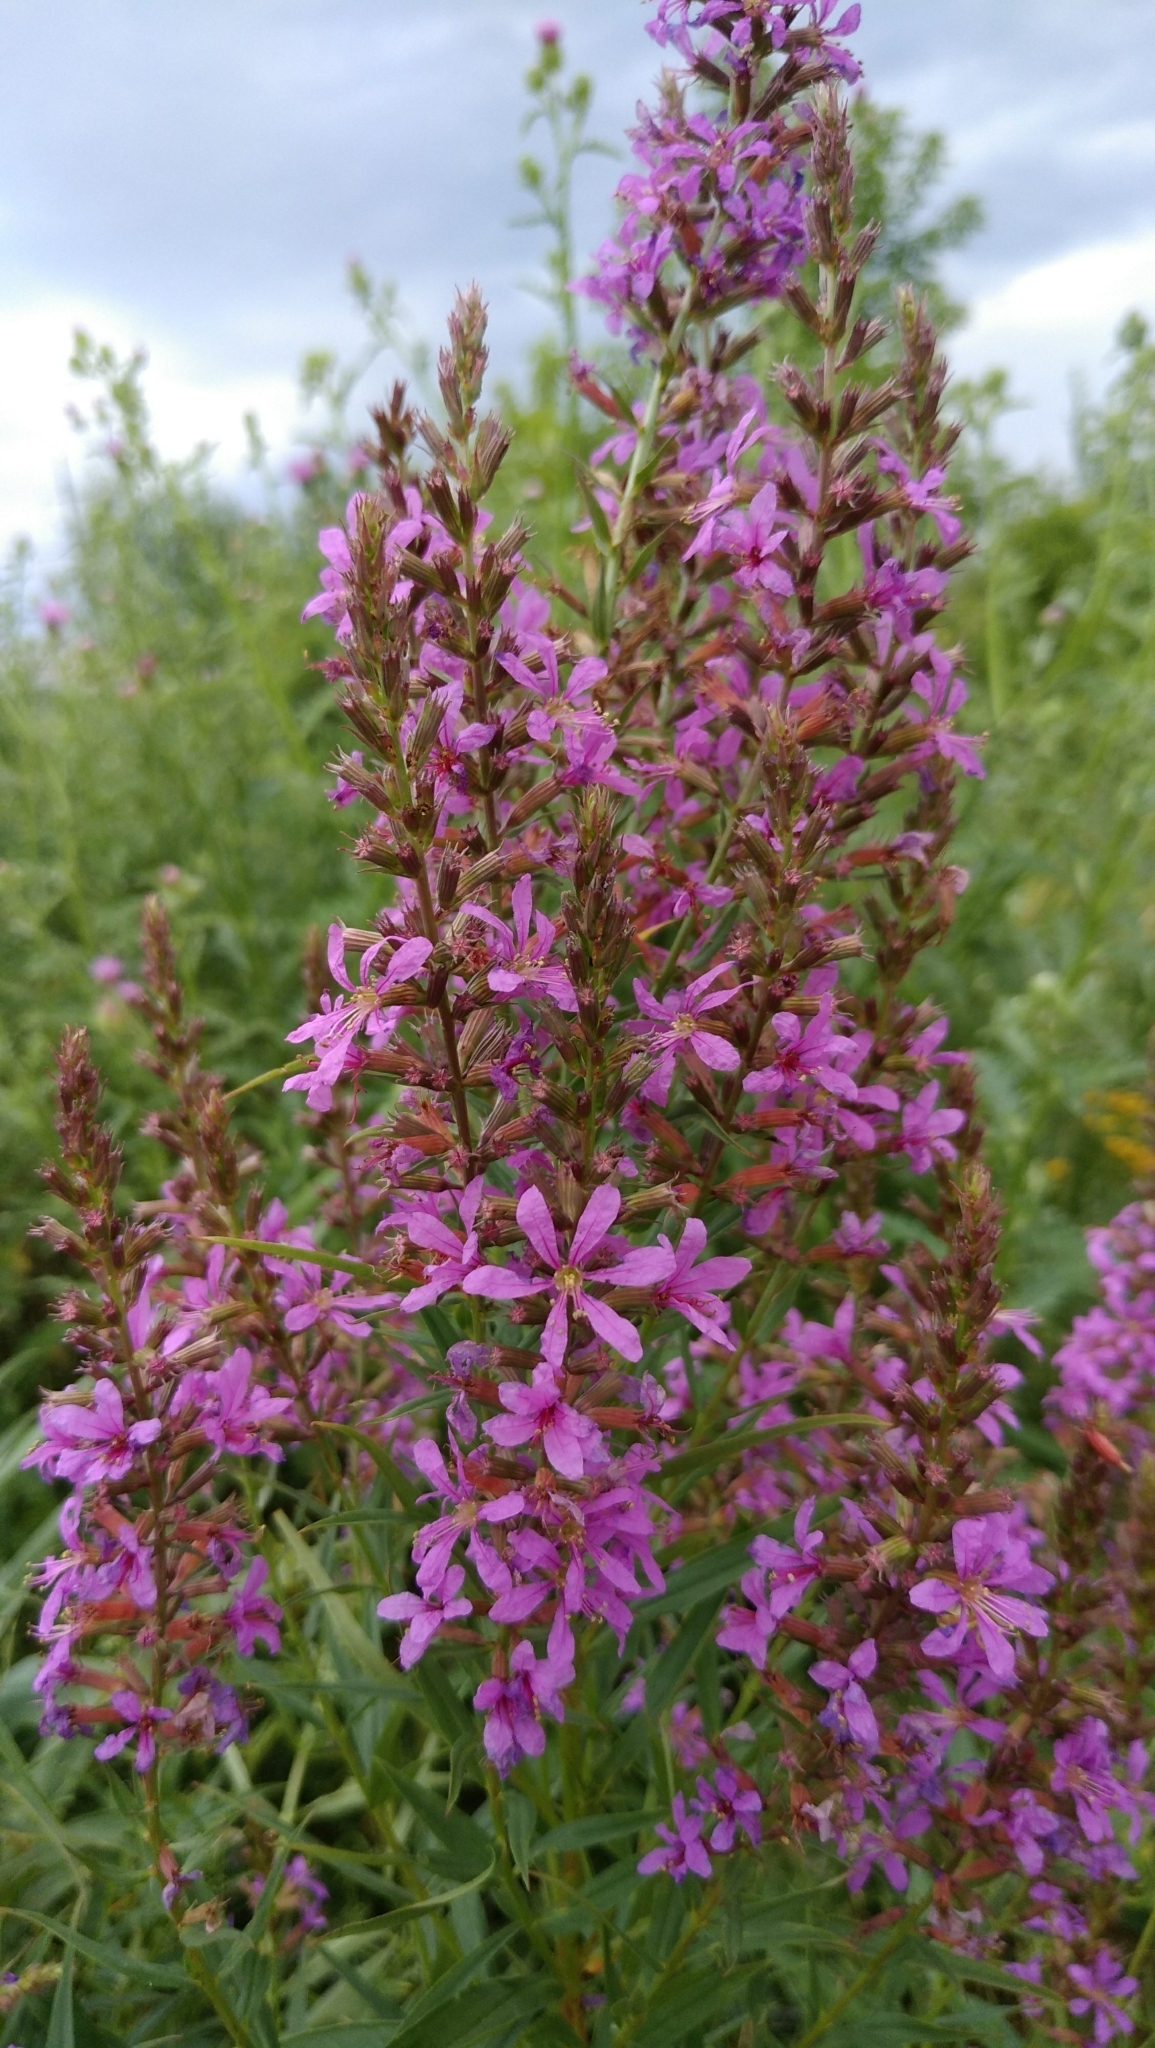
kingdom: Plantae
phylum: Tracheophyta
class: Magnoliopsida
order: Myrtales
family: Lythraceae
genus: Lythrum
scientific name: Lythrum salicaria
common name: Purple loosestrife
